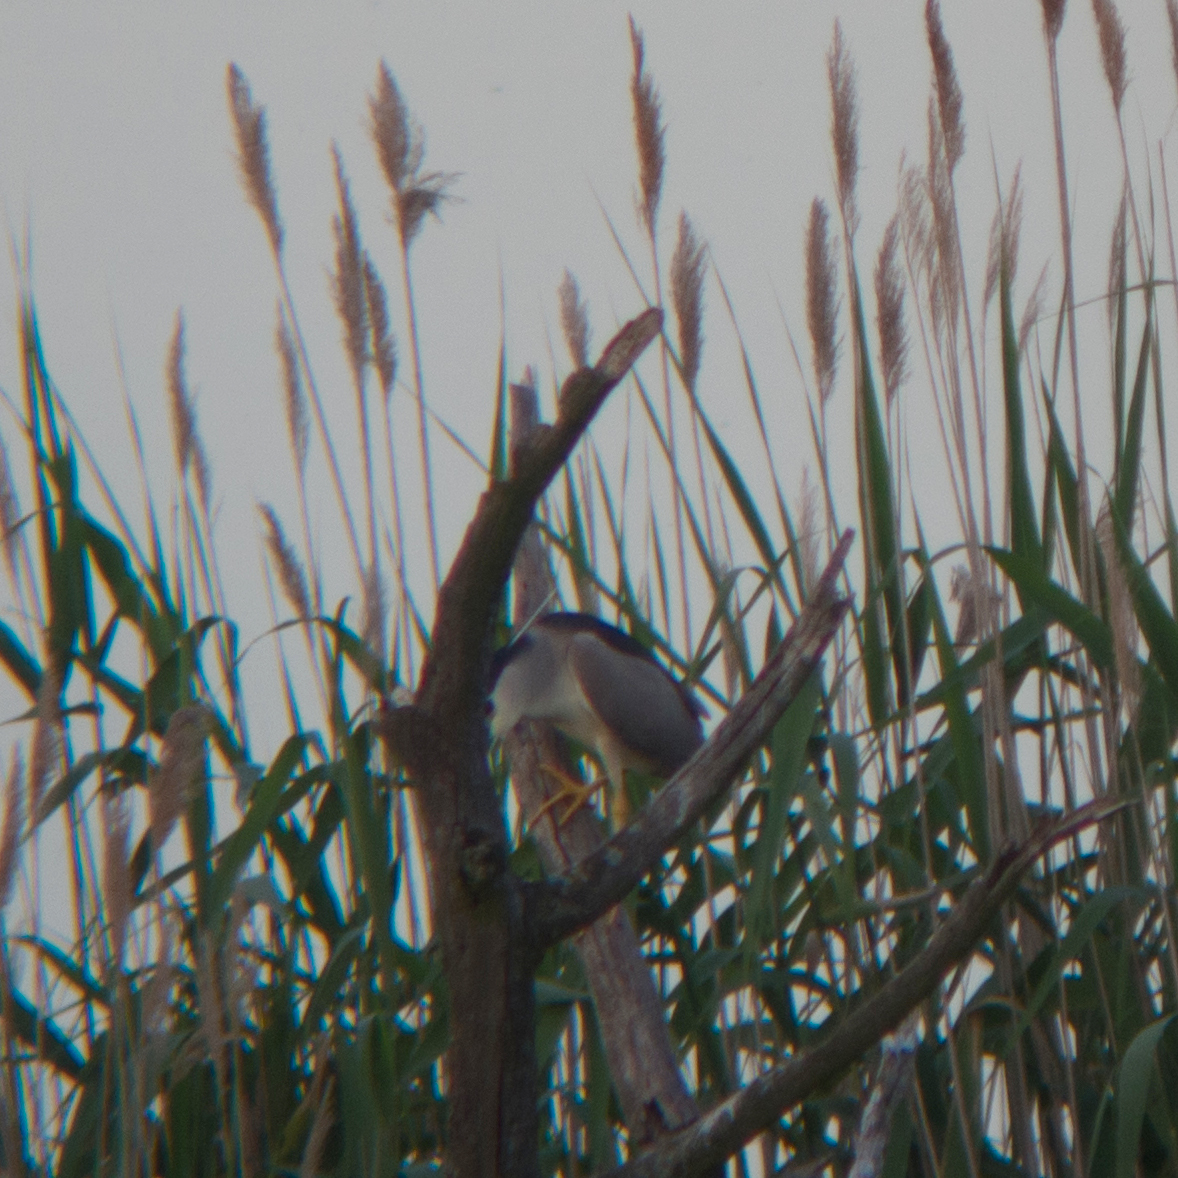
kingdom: Animalia
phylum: Chordata
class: Aves
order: Pelecaniformes
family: Ardeidae
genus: Nycticorax
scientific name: Nycticorax nycticorax
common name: Black-crowned night heron
